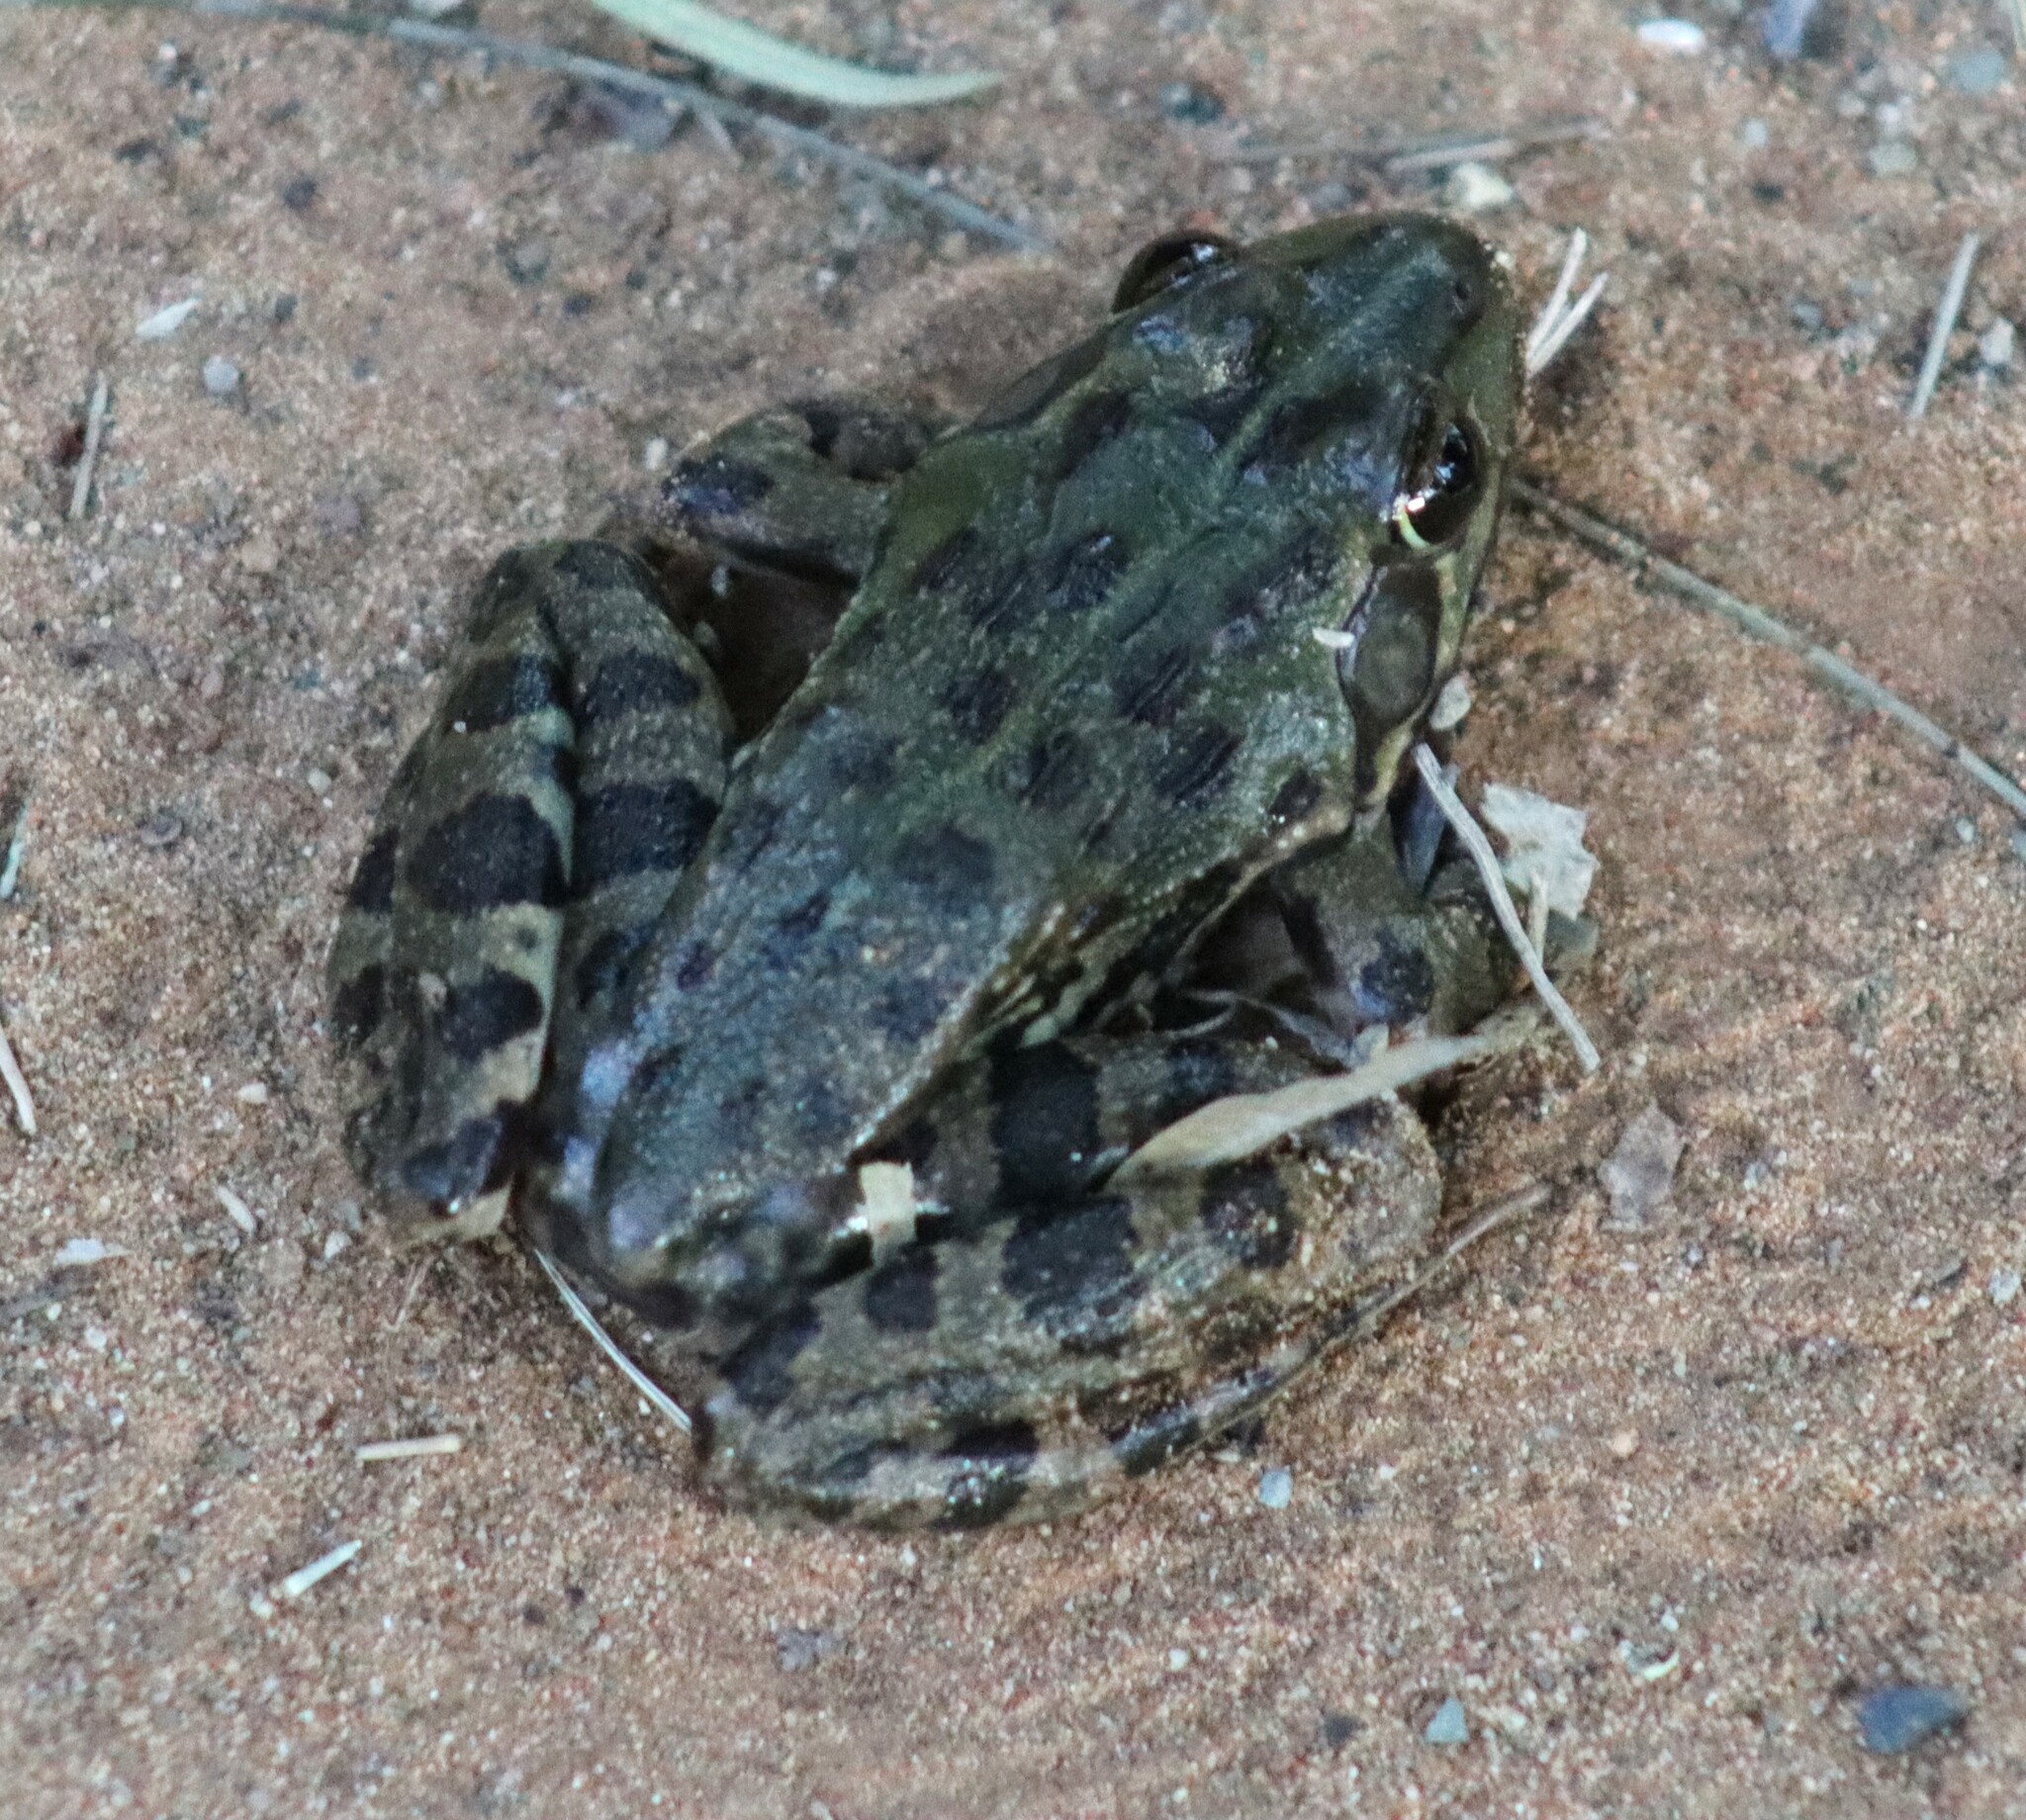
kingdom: Animalia
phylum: Chordata
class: Amphibia
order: Anura
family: Pyxicephalidae
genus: Amietia
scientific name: Amietia poyntoni
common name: Poynton's river frog
